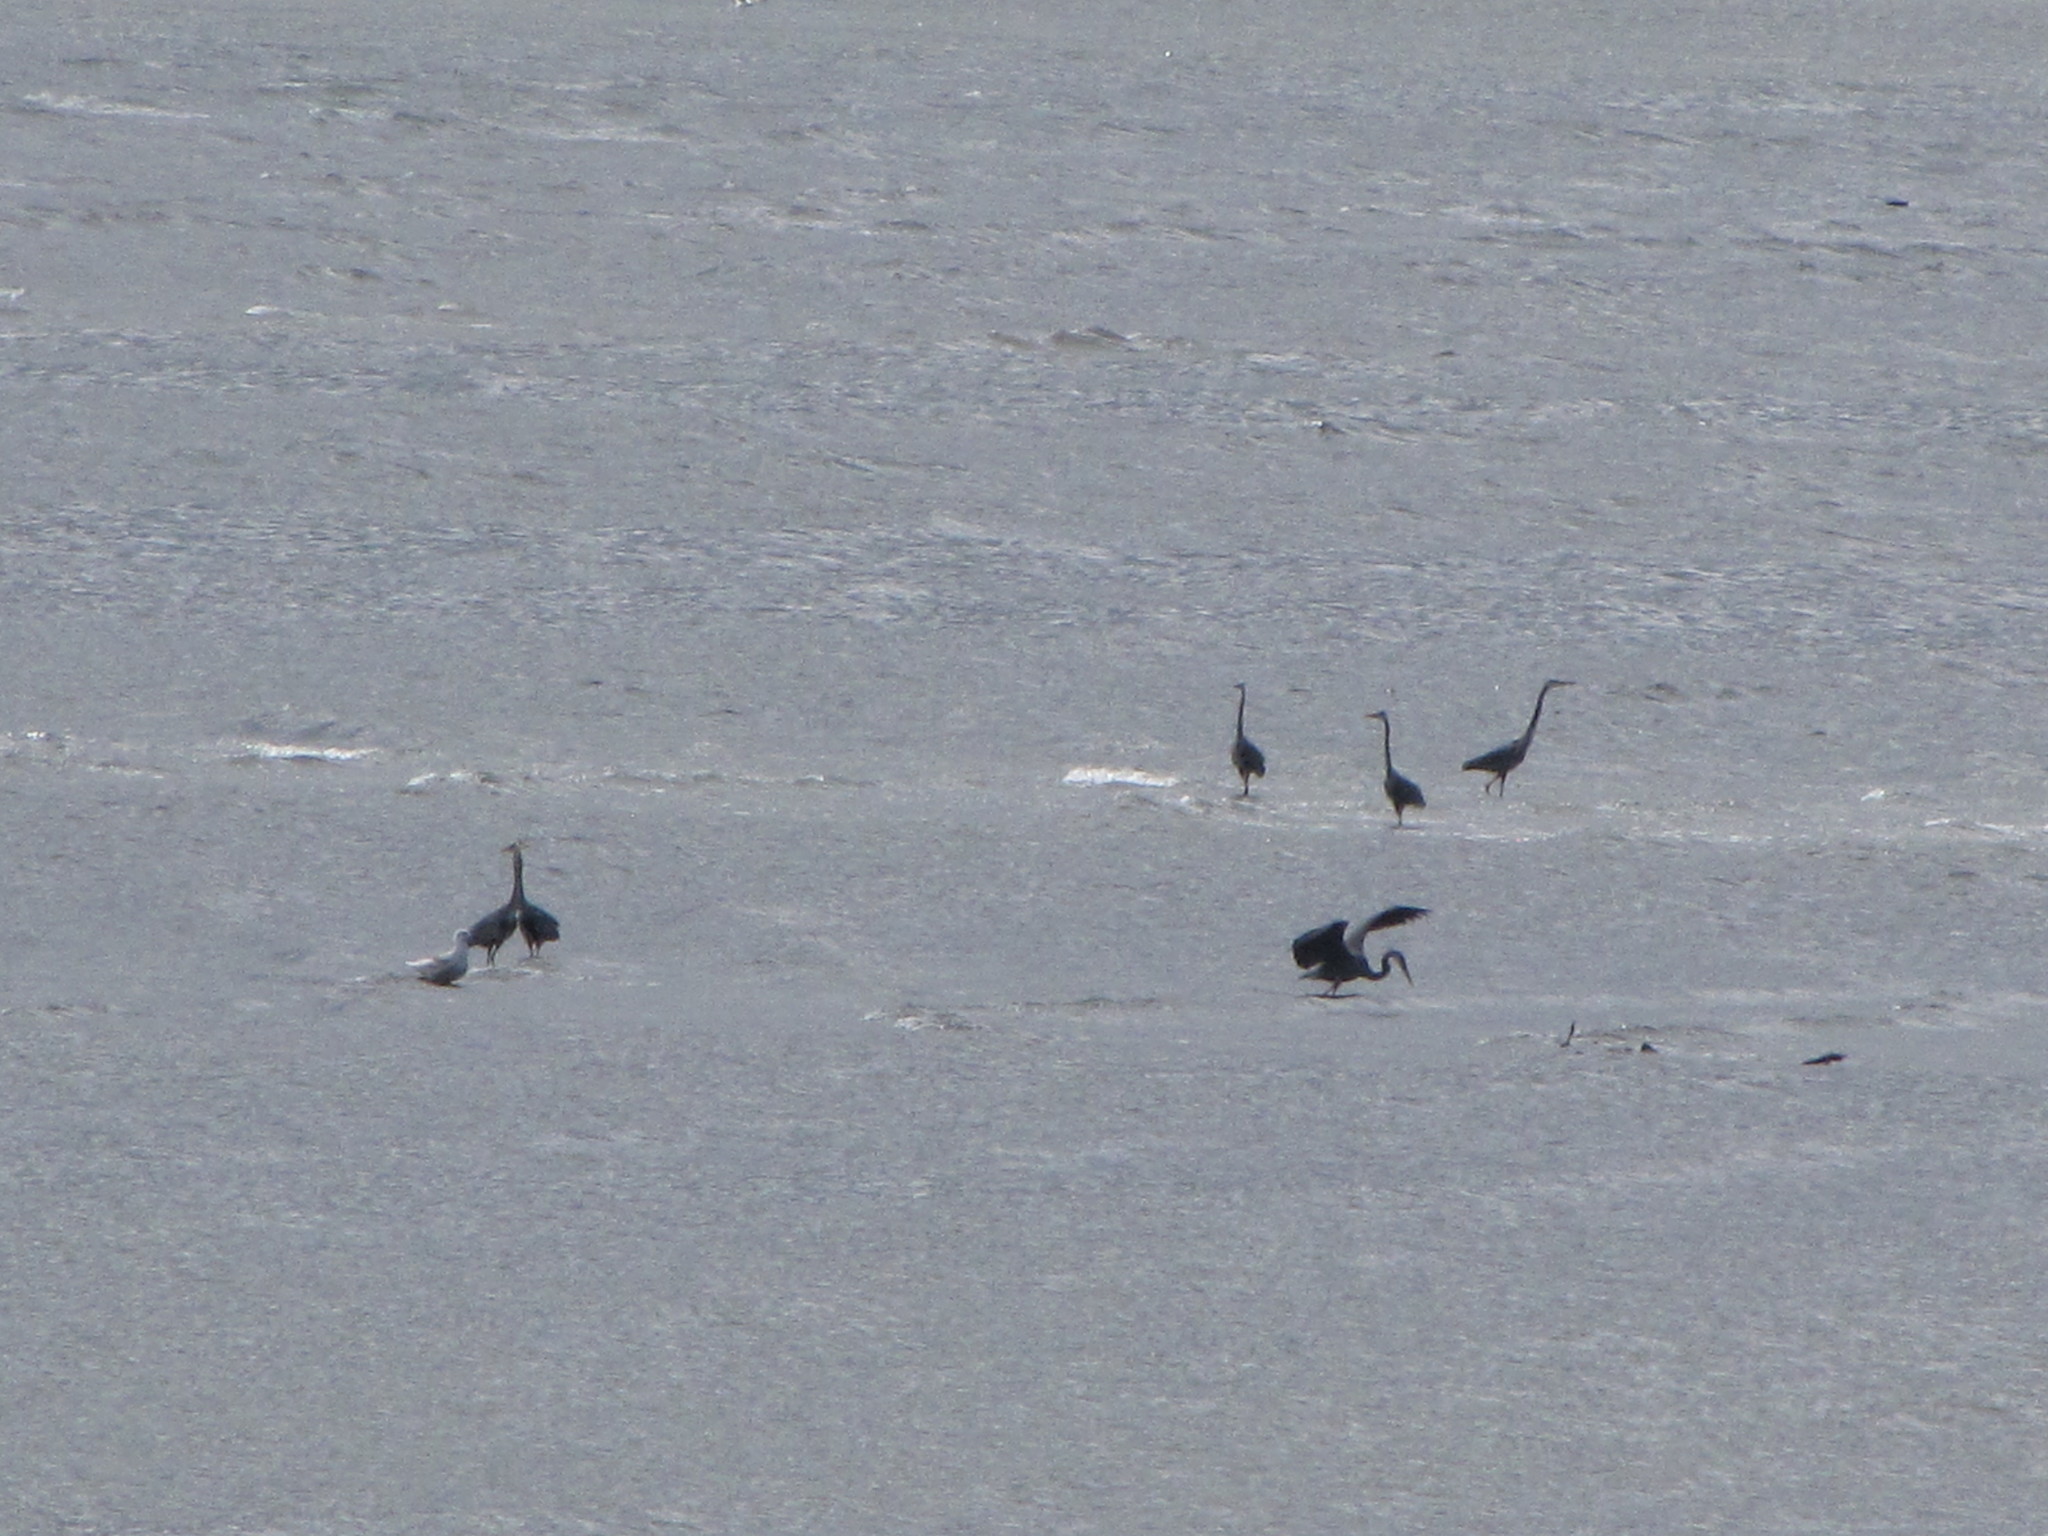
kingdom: Animalia
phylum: Chordata
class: Aves
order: Pelecaniformes
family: Ardeidae
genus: Ardea
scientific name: Ardea herodias
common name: Great blue heron
